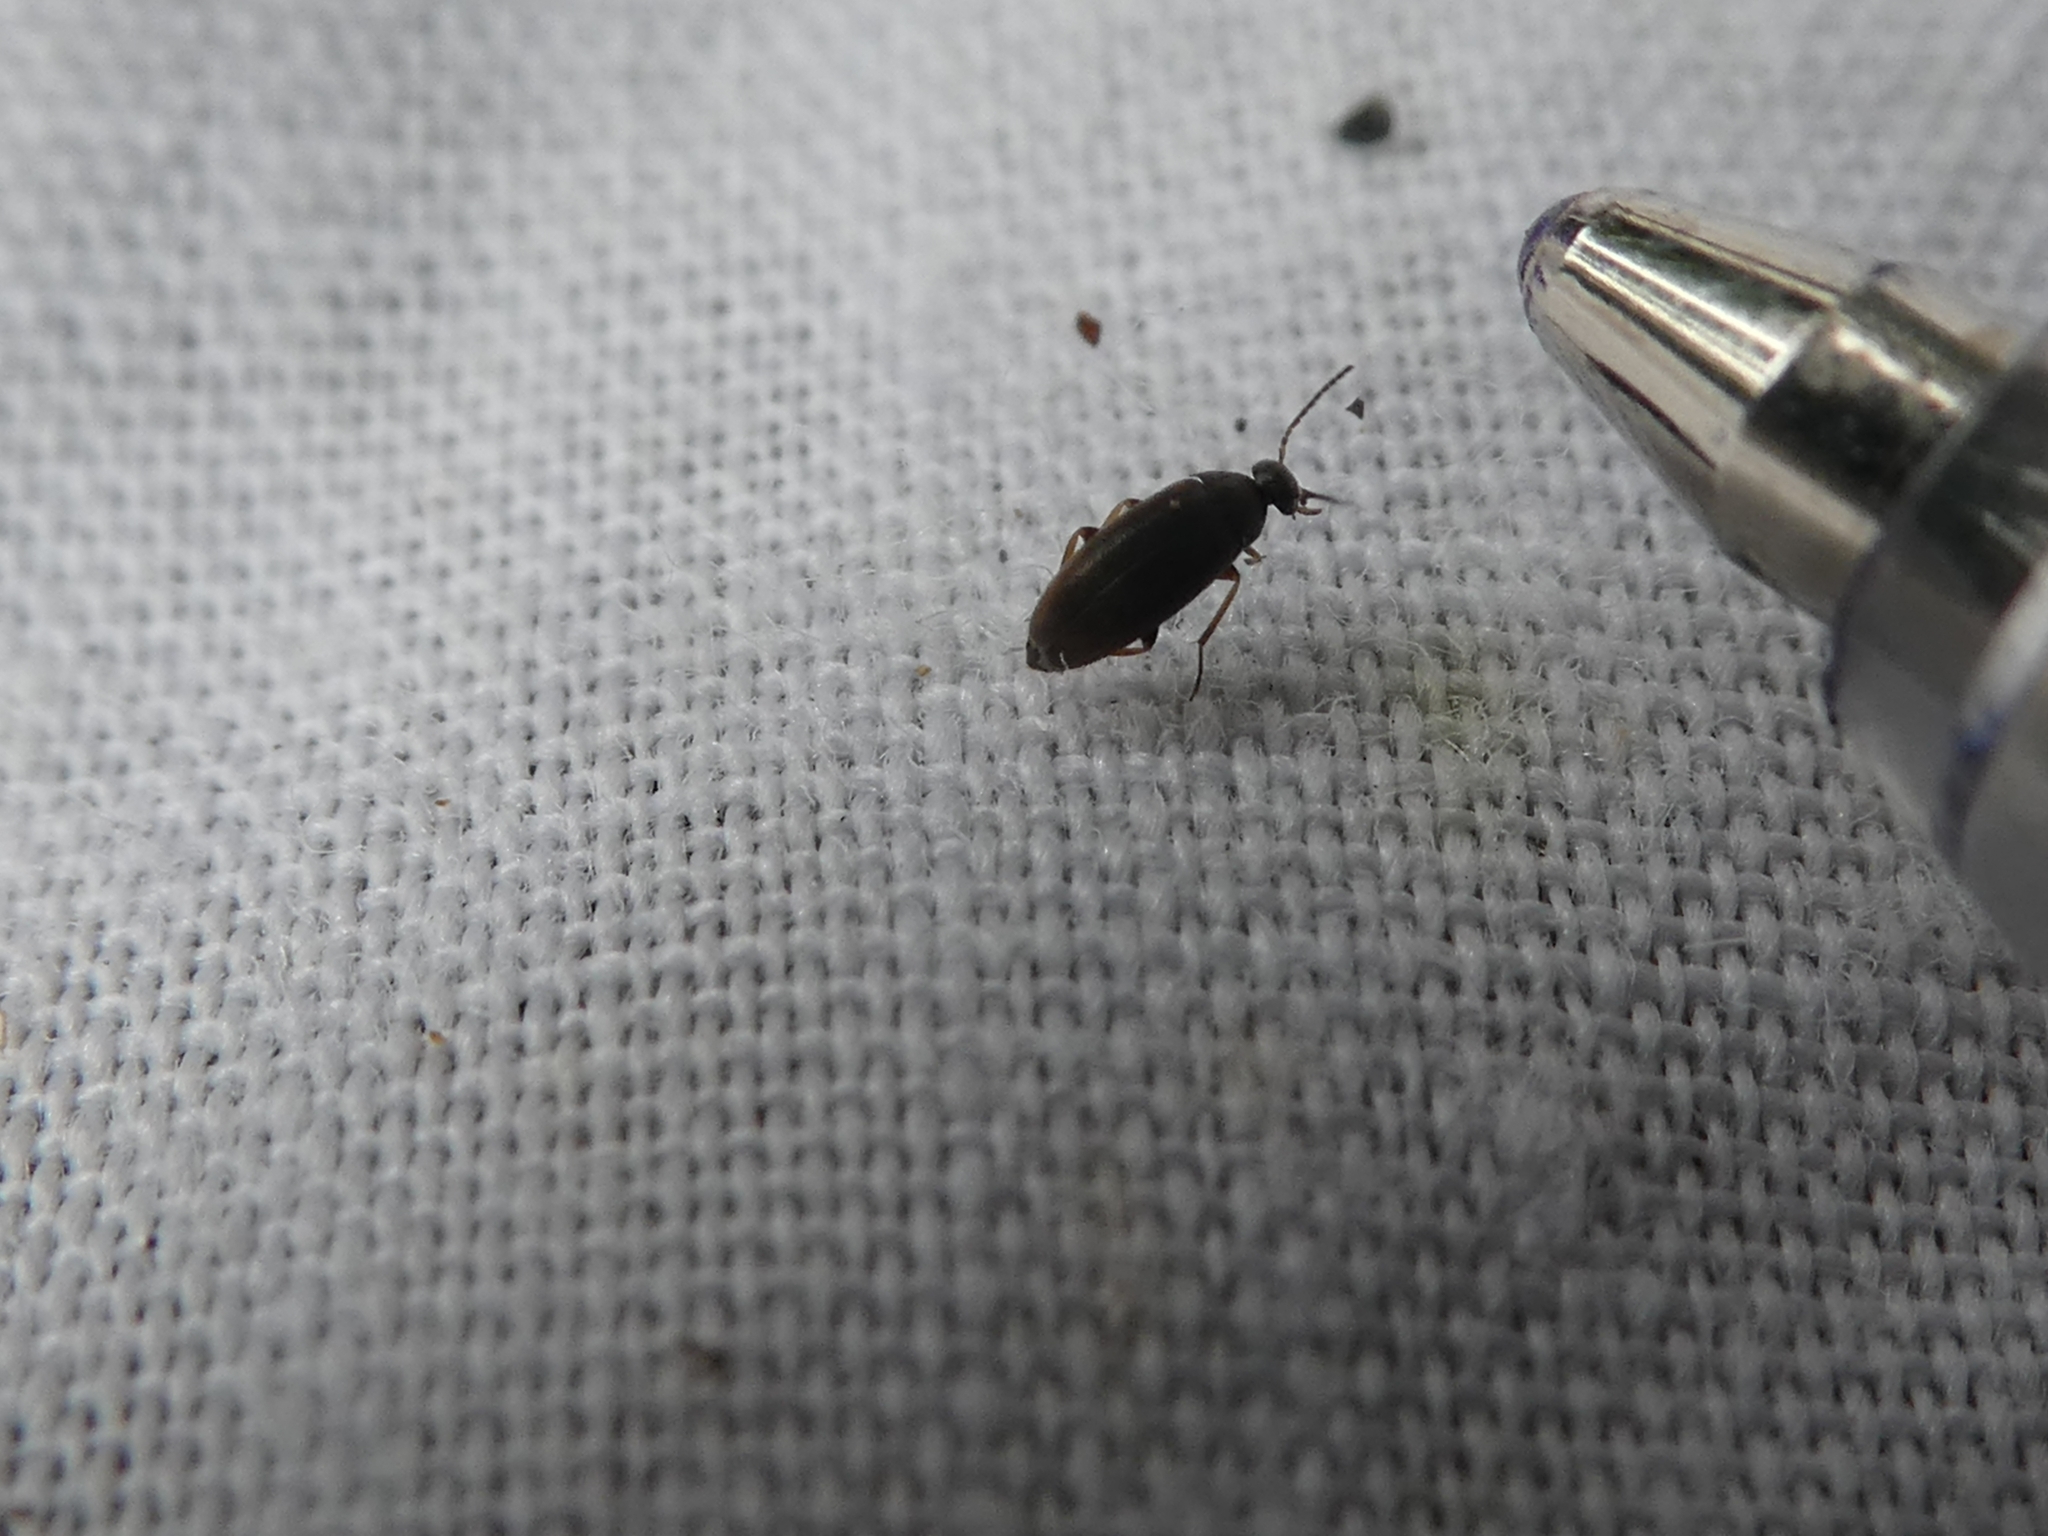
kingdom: Animalia
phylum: Arthropoda
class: Insecta
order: Coleoptera
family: Scraptiidae
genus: Nothotelus
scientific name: Nothotelus
